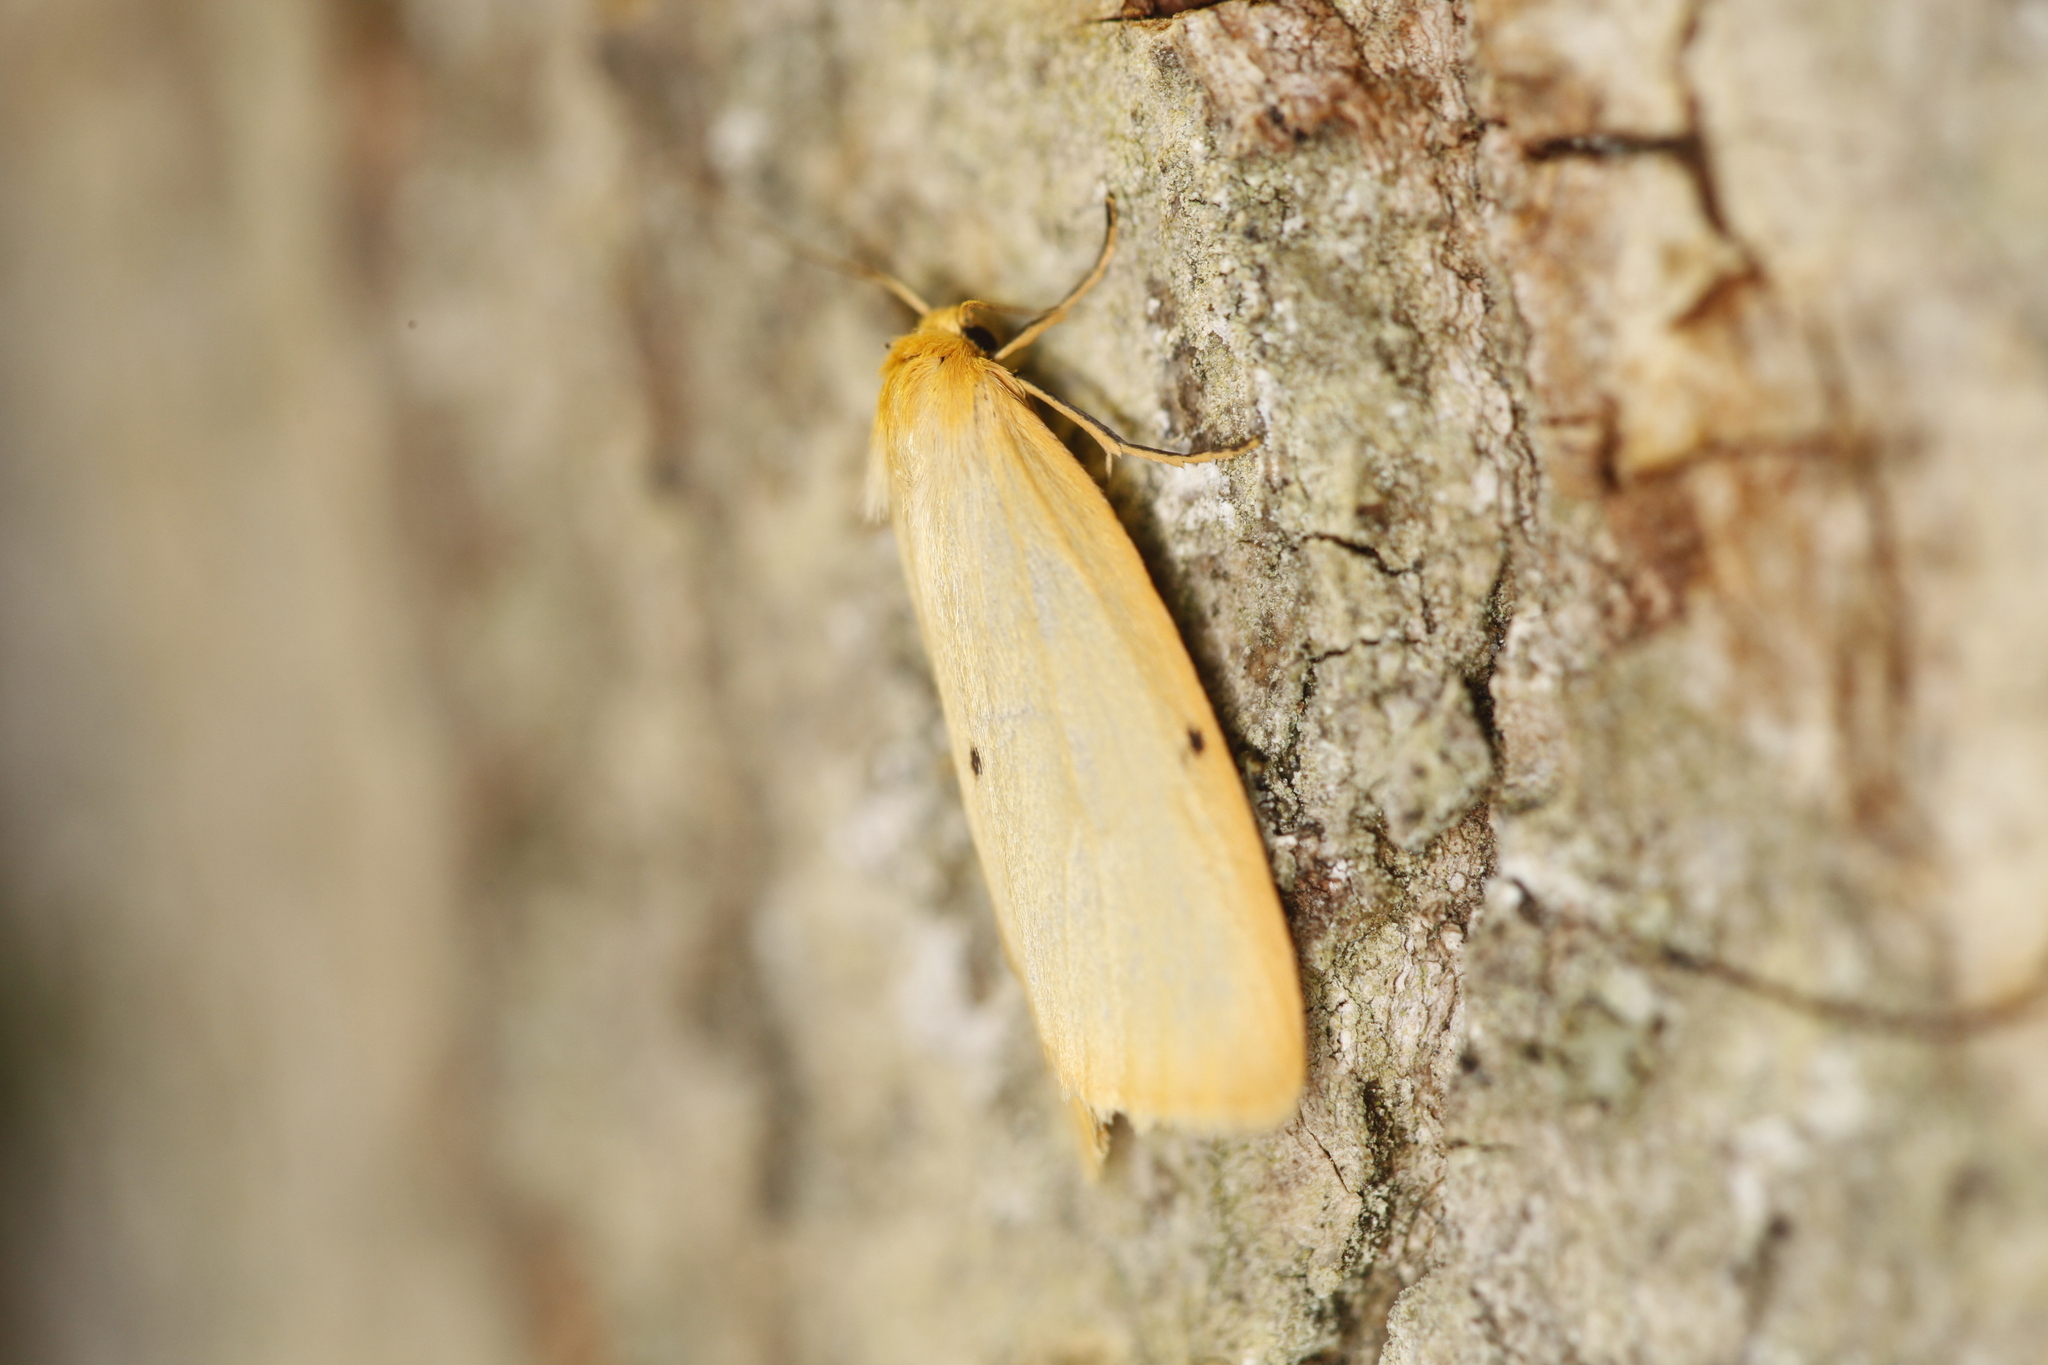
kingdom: Animalia
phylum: Arthropoda
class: Insecta
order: Lepidoptera
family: Erebidae
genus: Cybosia
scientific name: Cybosia mesomella
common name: Four-dotted footman
